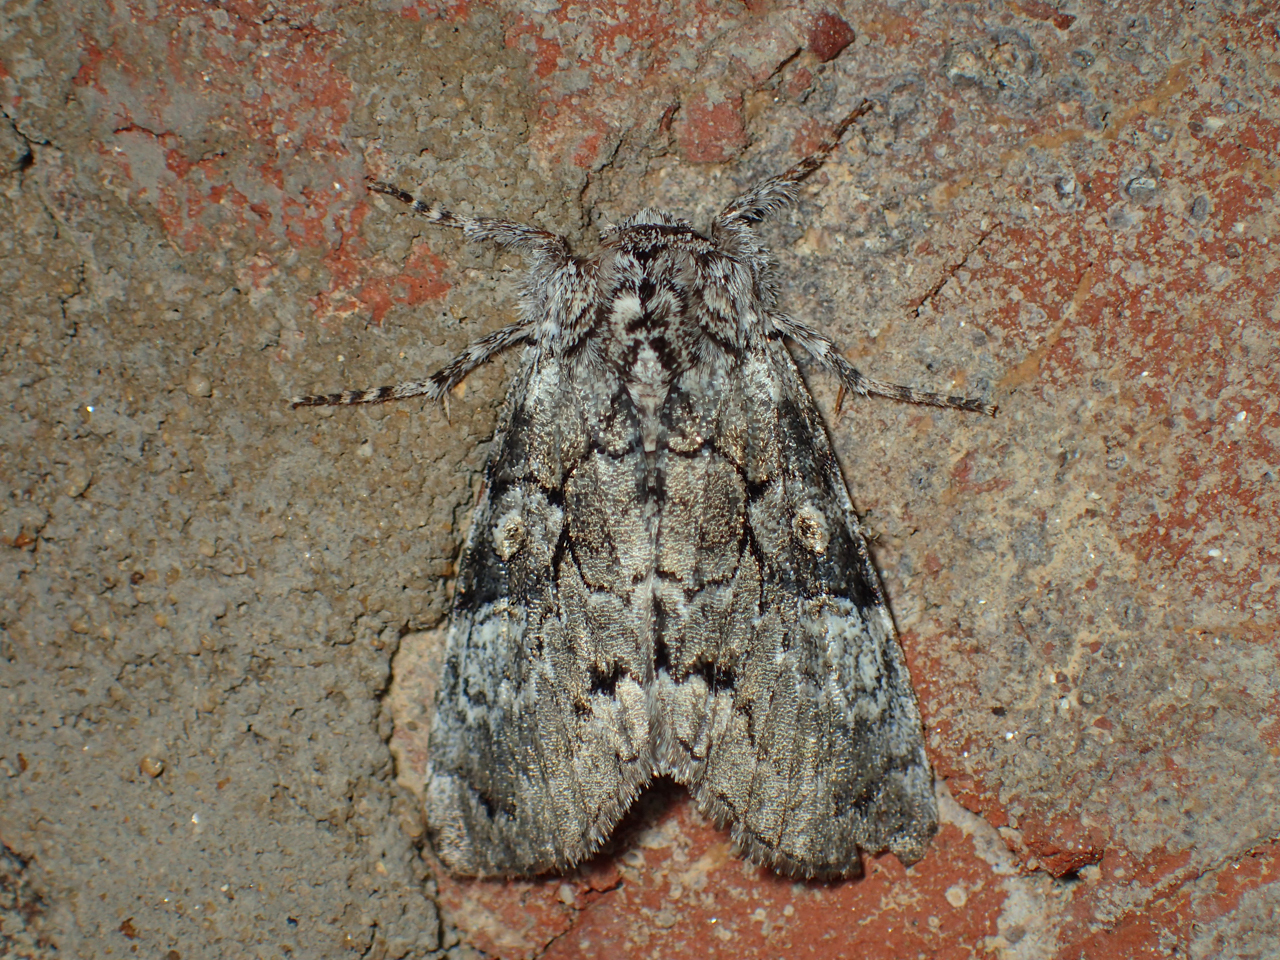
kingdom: Animalia
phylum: Arthropoda
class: Insecta
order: Lepidoptera
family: Noctuidae
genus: Charadra
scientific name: Charadra deridens
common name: Marbled tuffet
